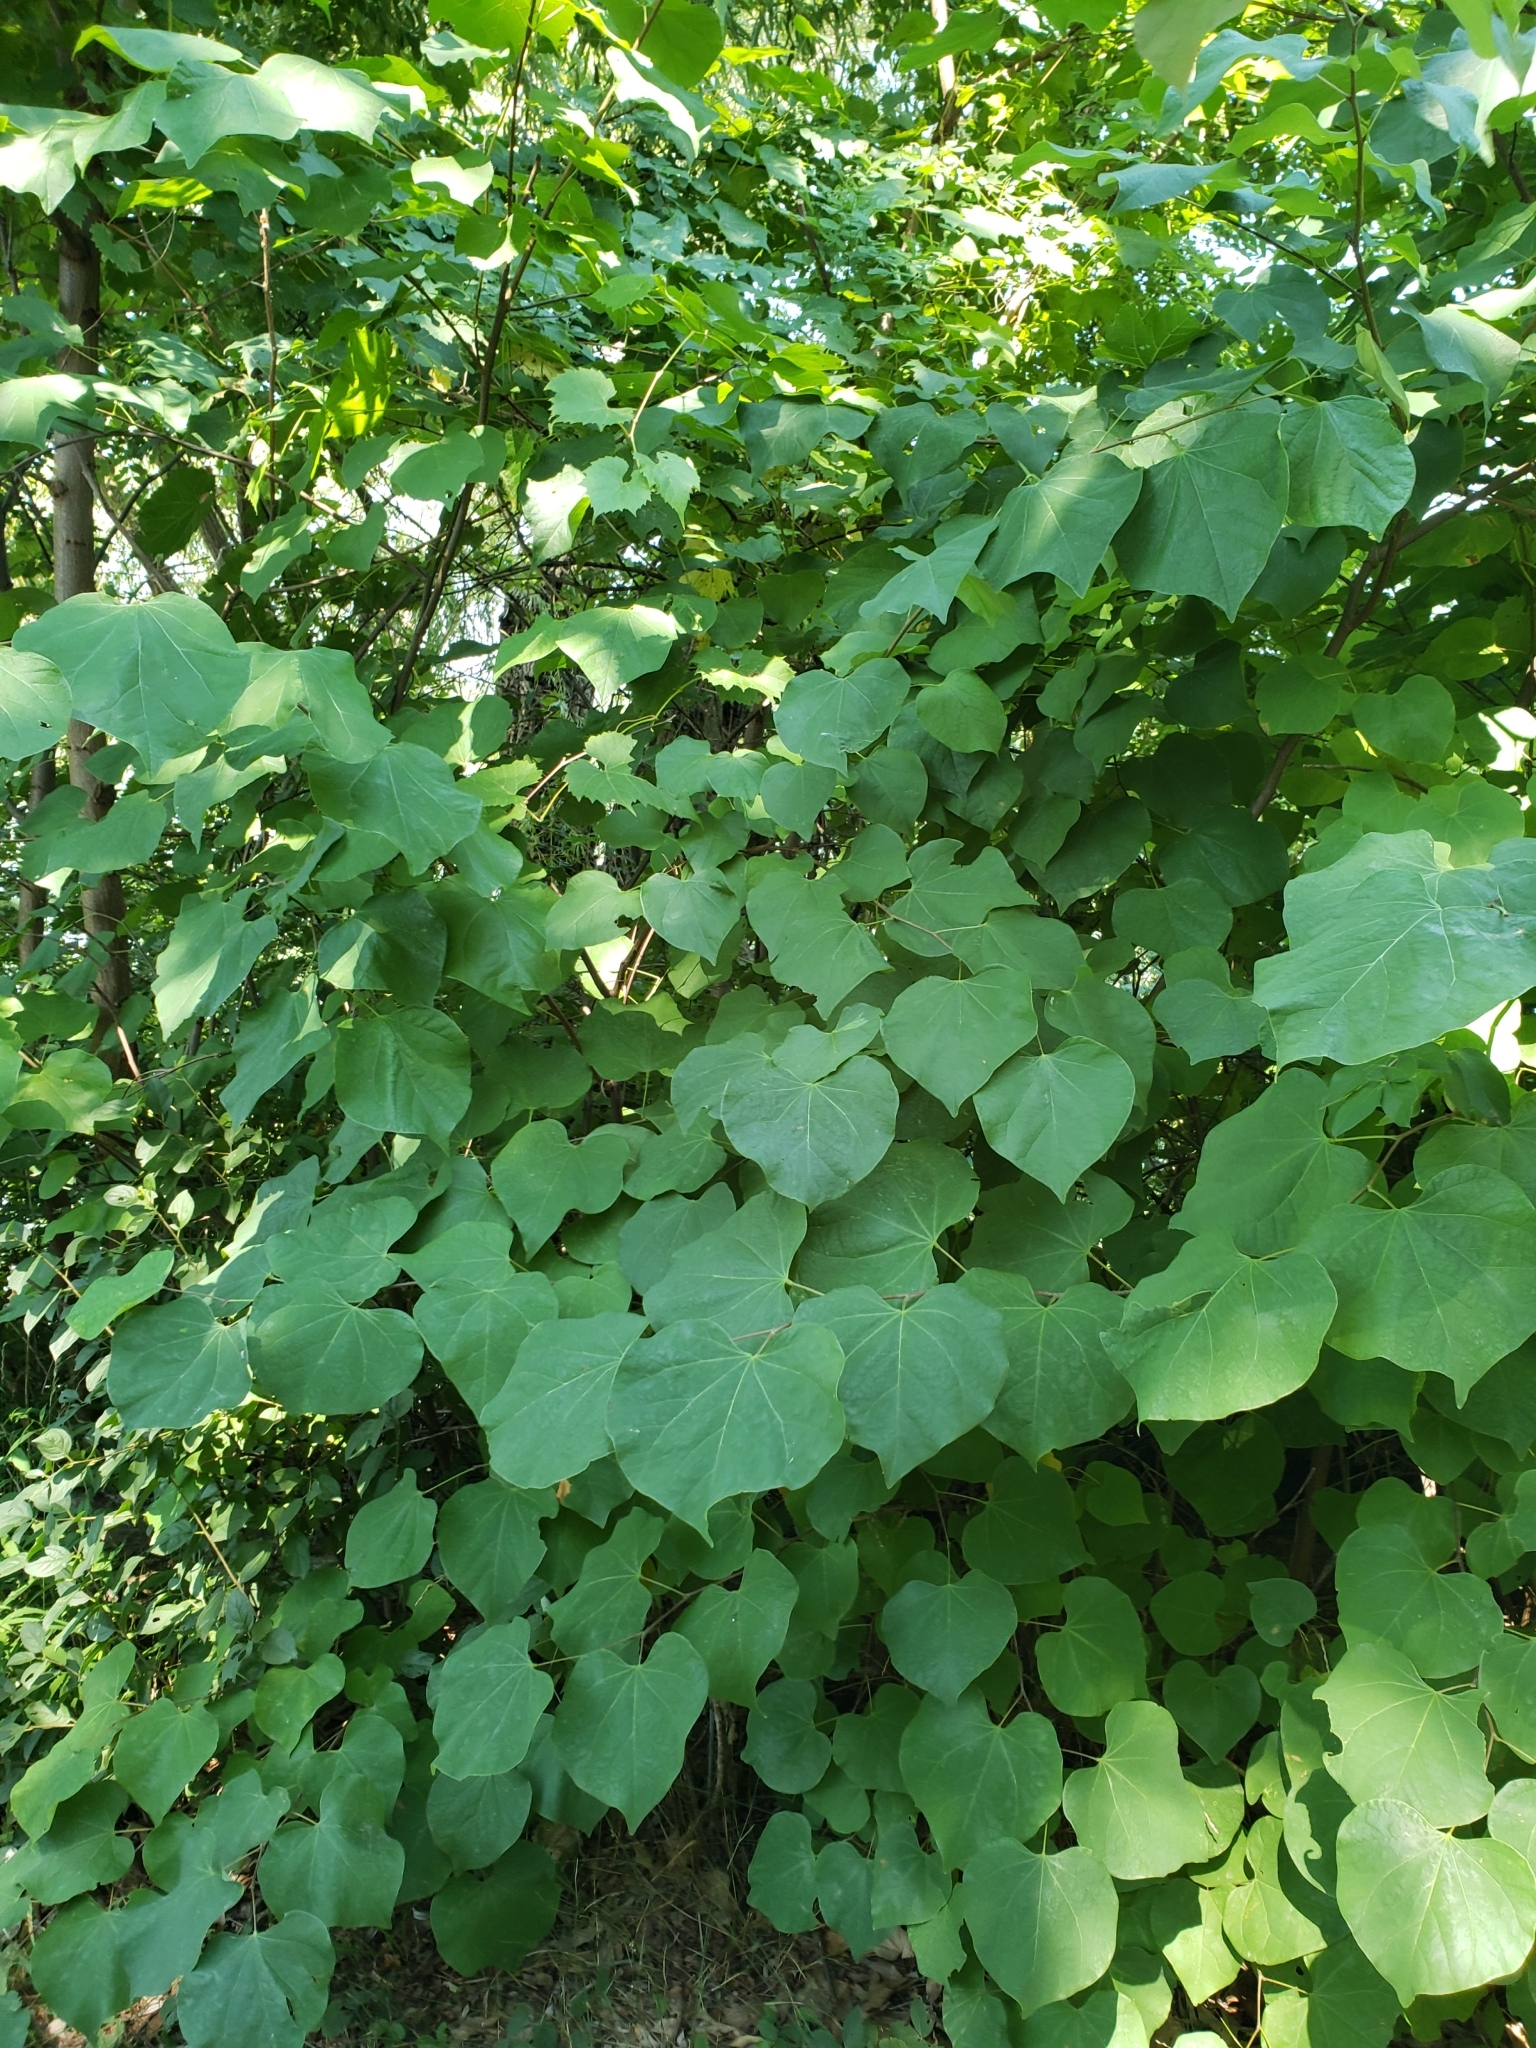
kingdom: Plantae
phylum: Tracheophyta
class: Magnoliopsida
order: Fabales
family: Fabaceae
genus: Cercis
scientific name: Cercis canadensis
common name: Eastern redbud
